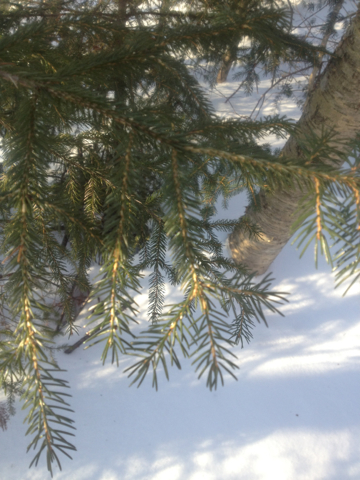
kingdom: Plantae
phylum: Tracheophyta
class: Pinopsida
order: Pinales
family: Pinaceae
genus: Picea
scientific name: Picea rubens
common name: Red spruce
